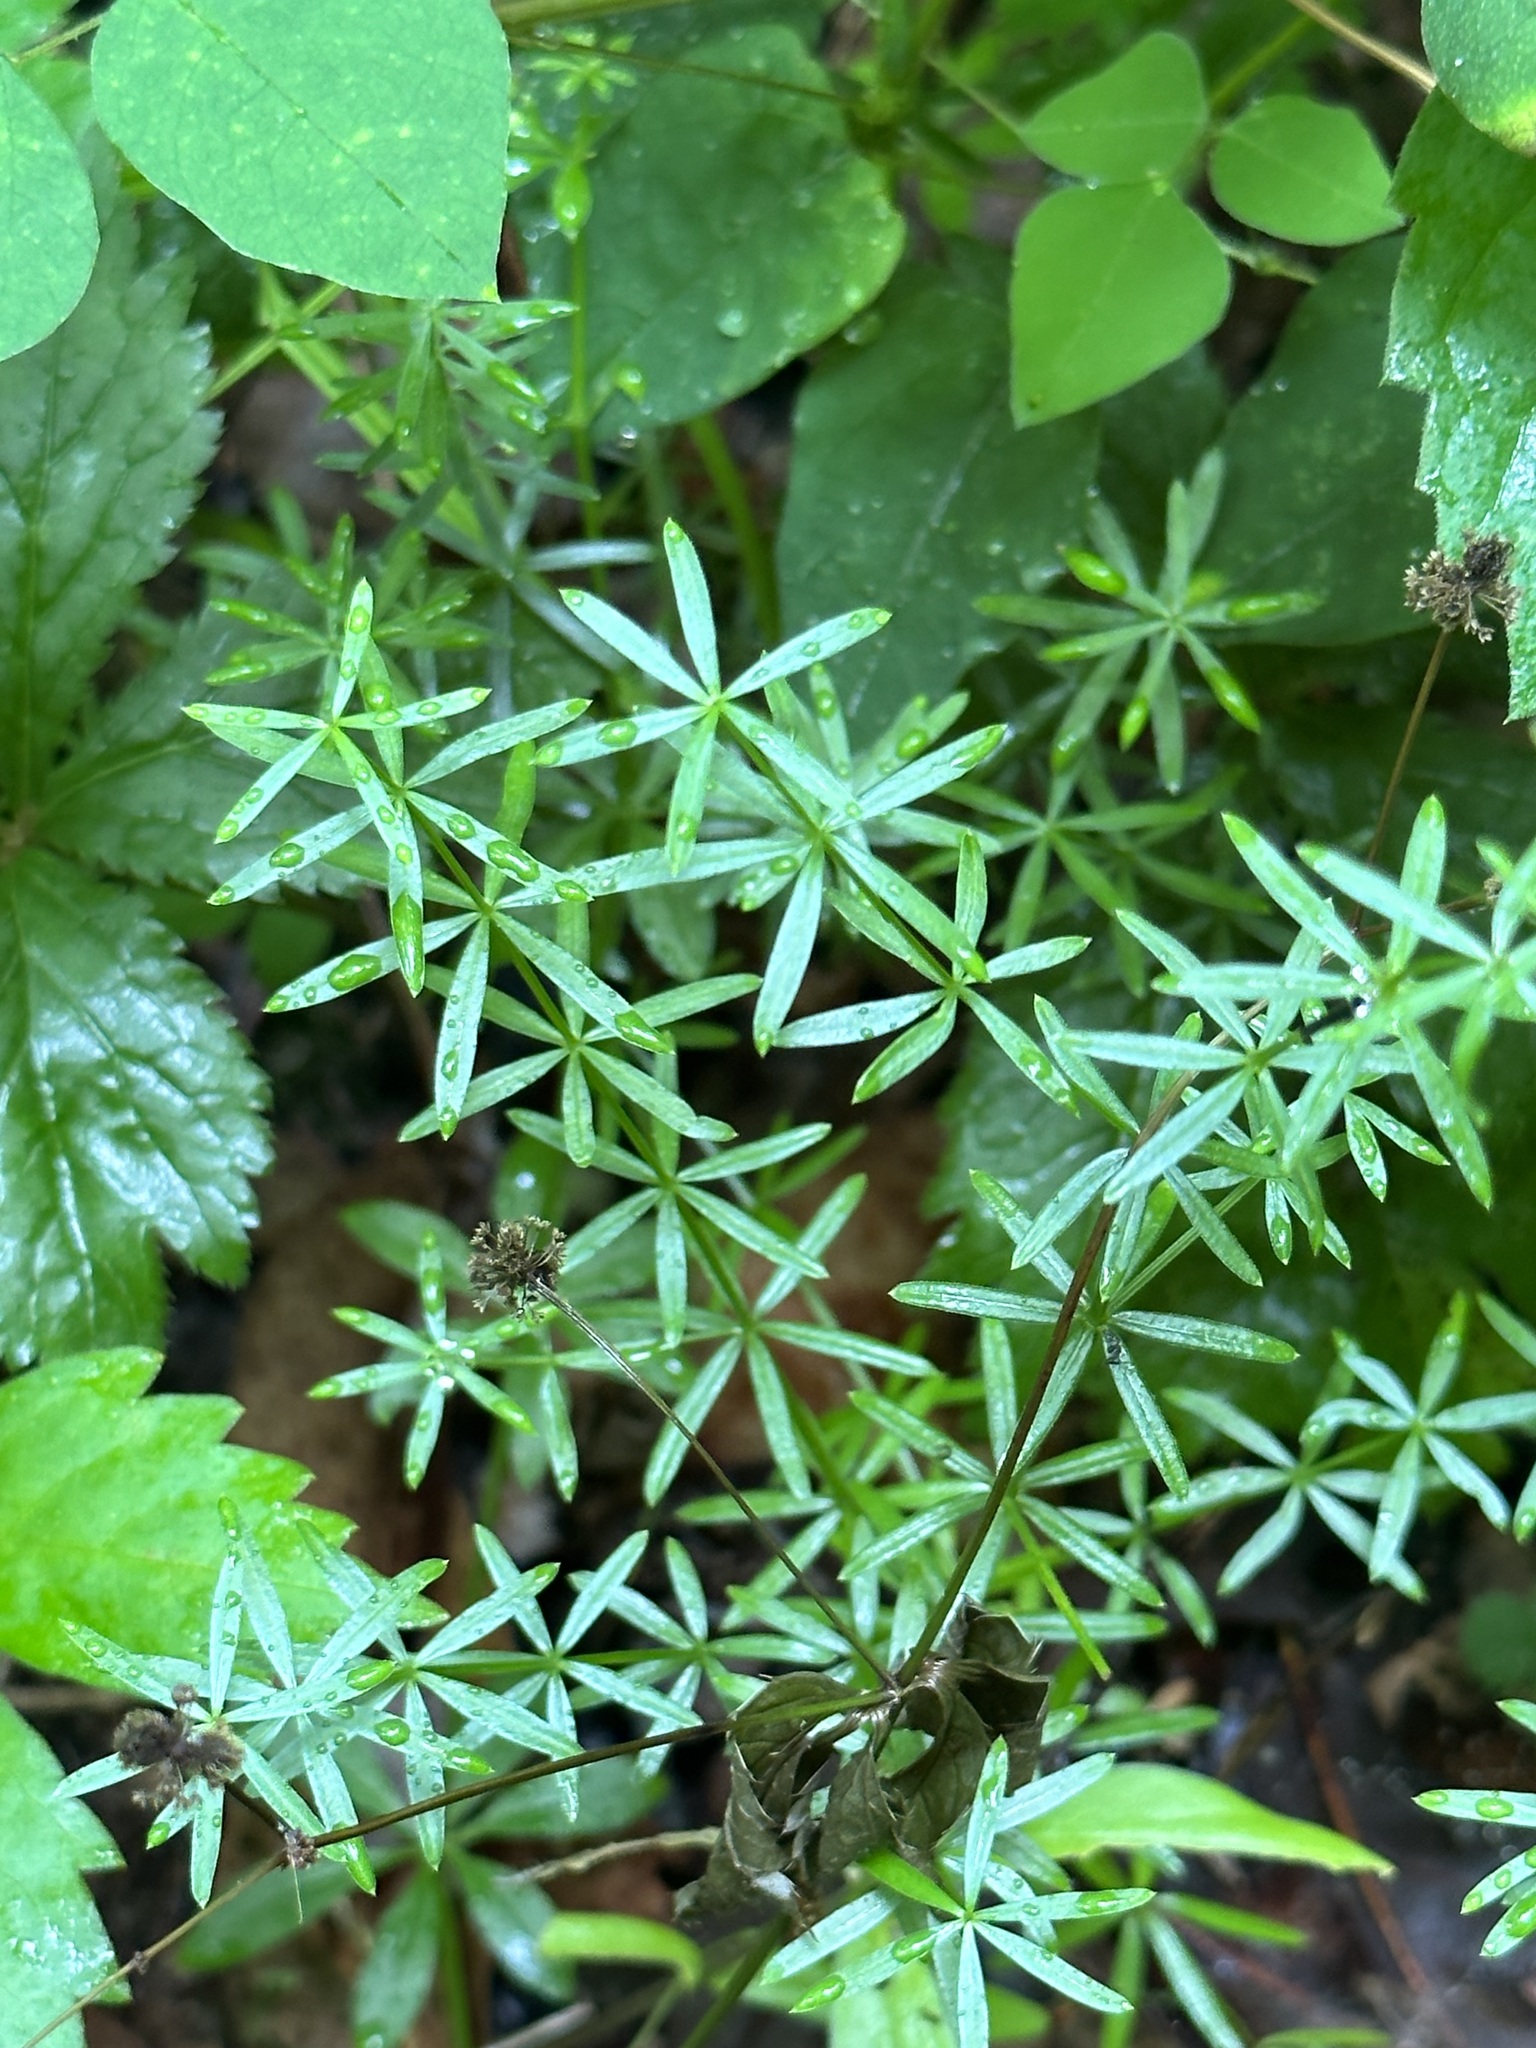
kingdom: Plantae
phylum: Tracheophyta
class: Magnoliopsida
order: Gentianales
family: Rubiaceae
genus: Galium
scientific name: Galium concinnum
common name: Shining bedstraw
